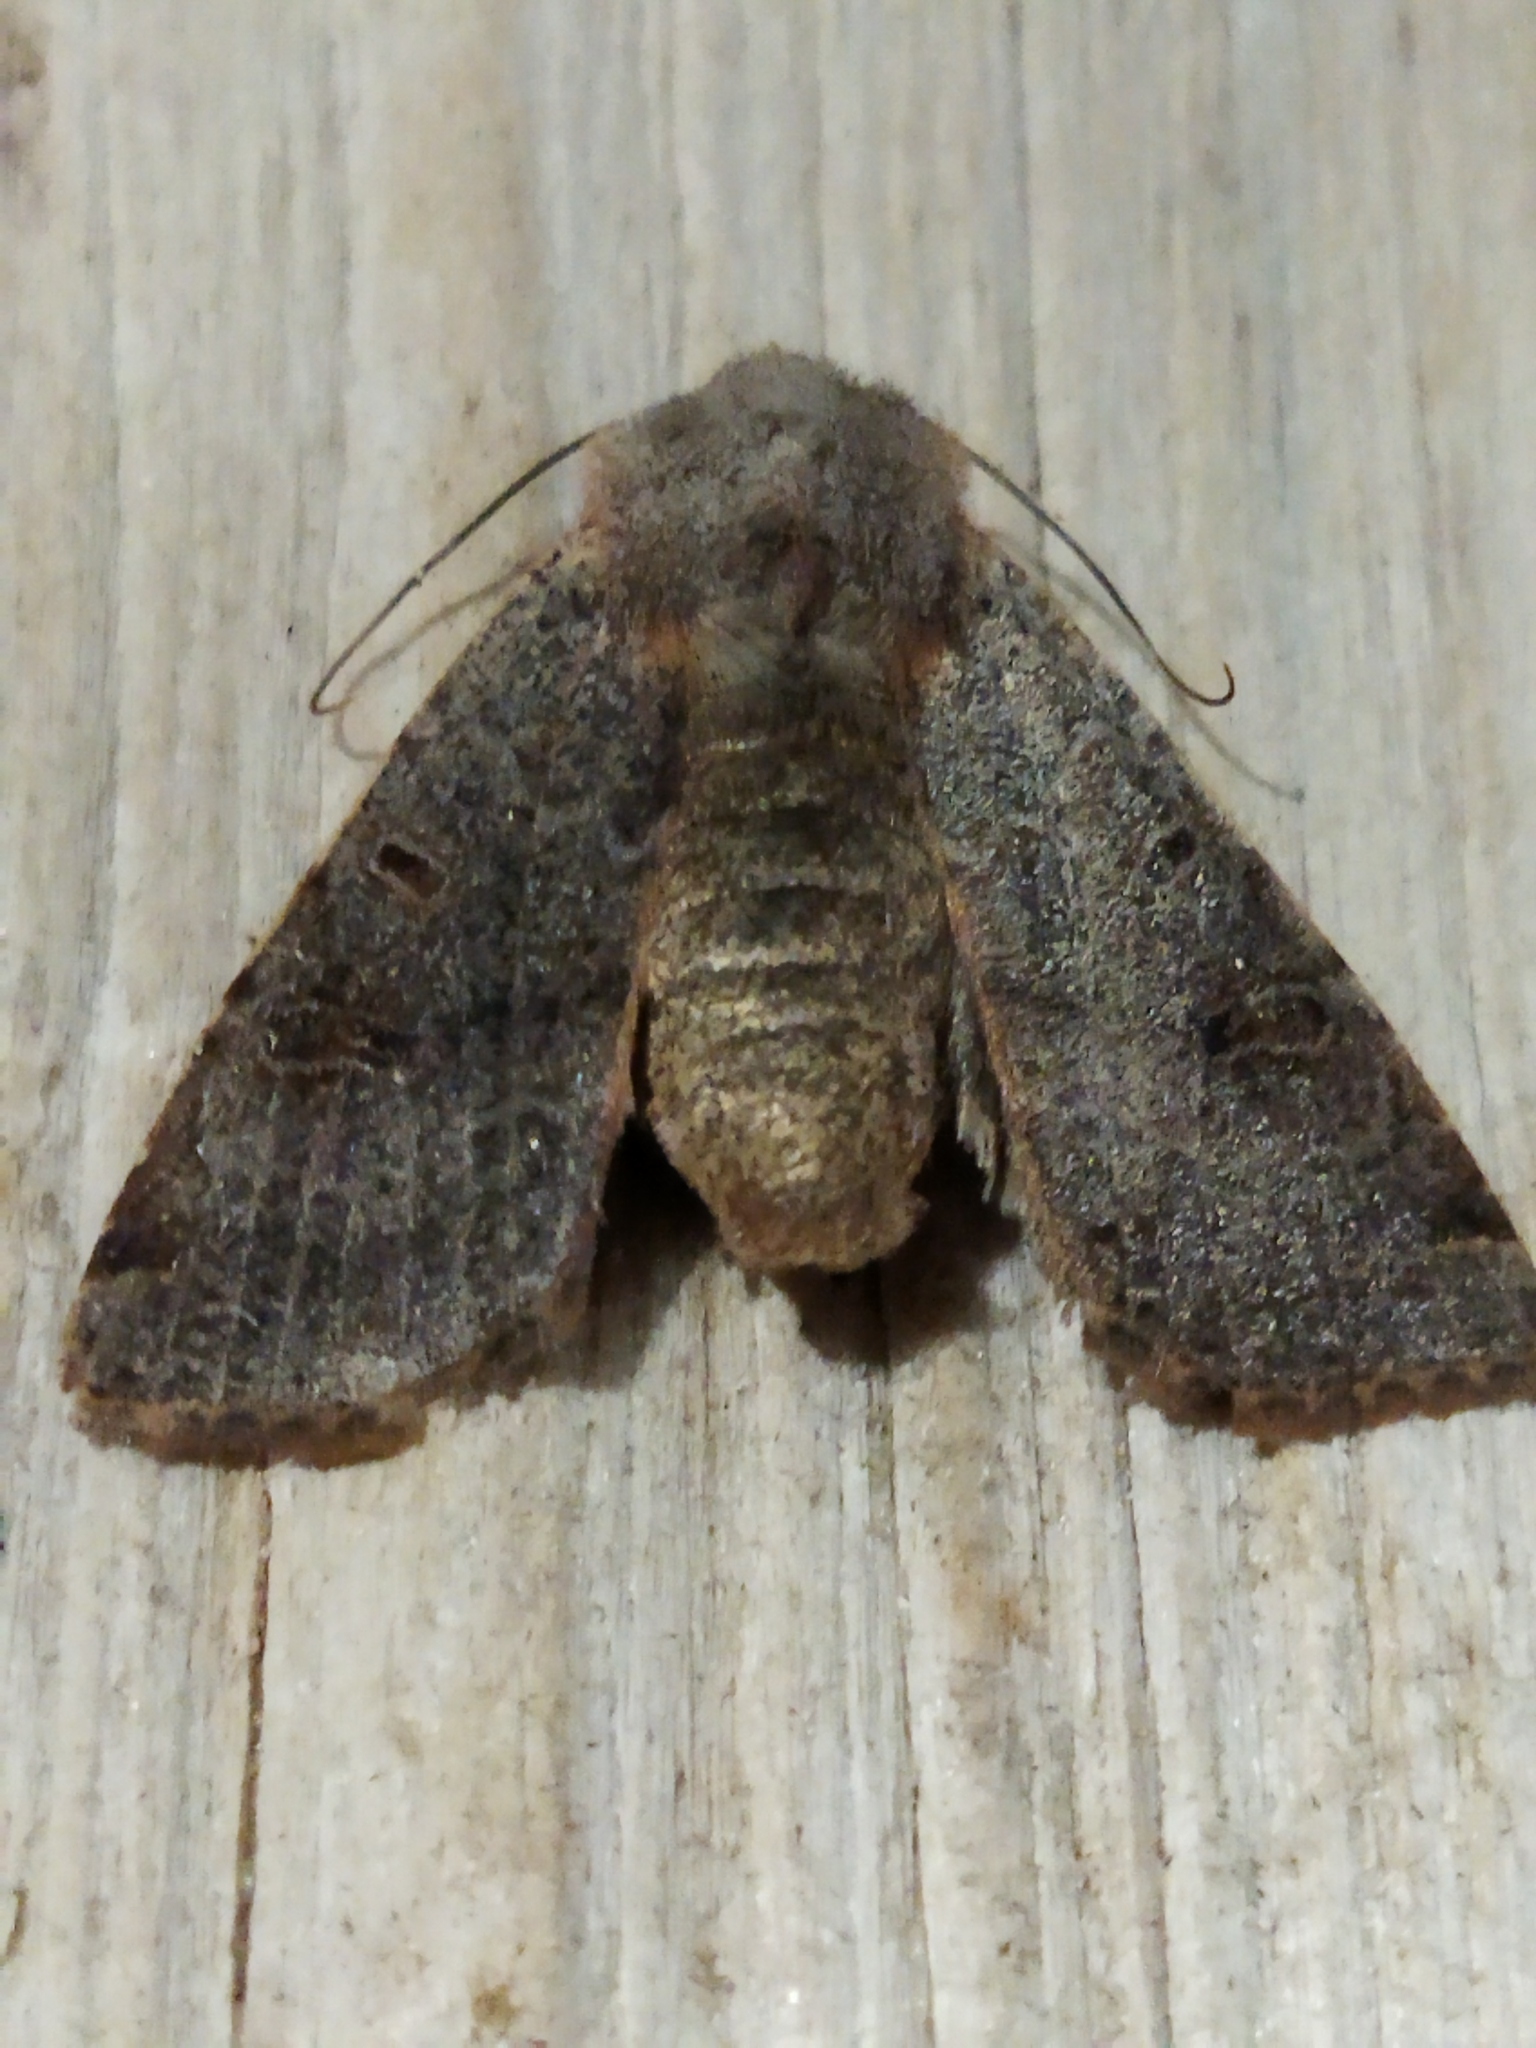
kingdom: Animalia
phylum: Arthropoda
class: Insecta
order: Lepidoptera
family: Noctuidae
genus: Agrochola
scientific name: Agrochola lychnidis
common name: Beaded chestnut
